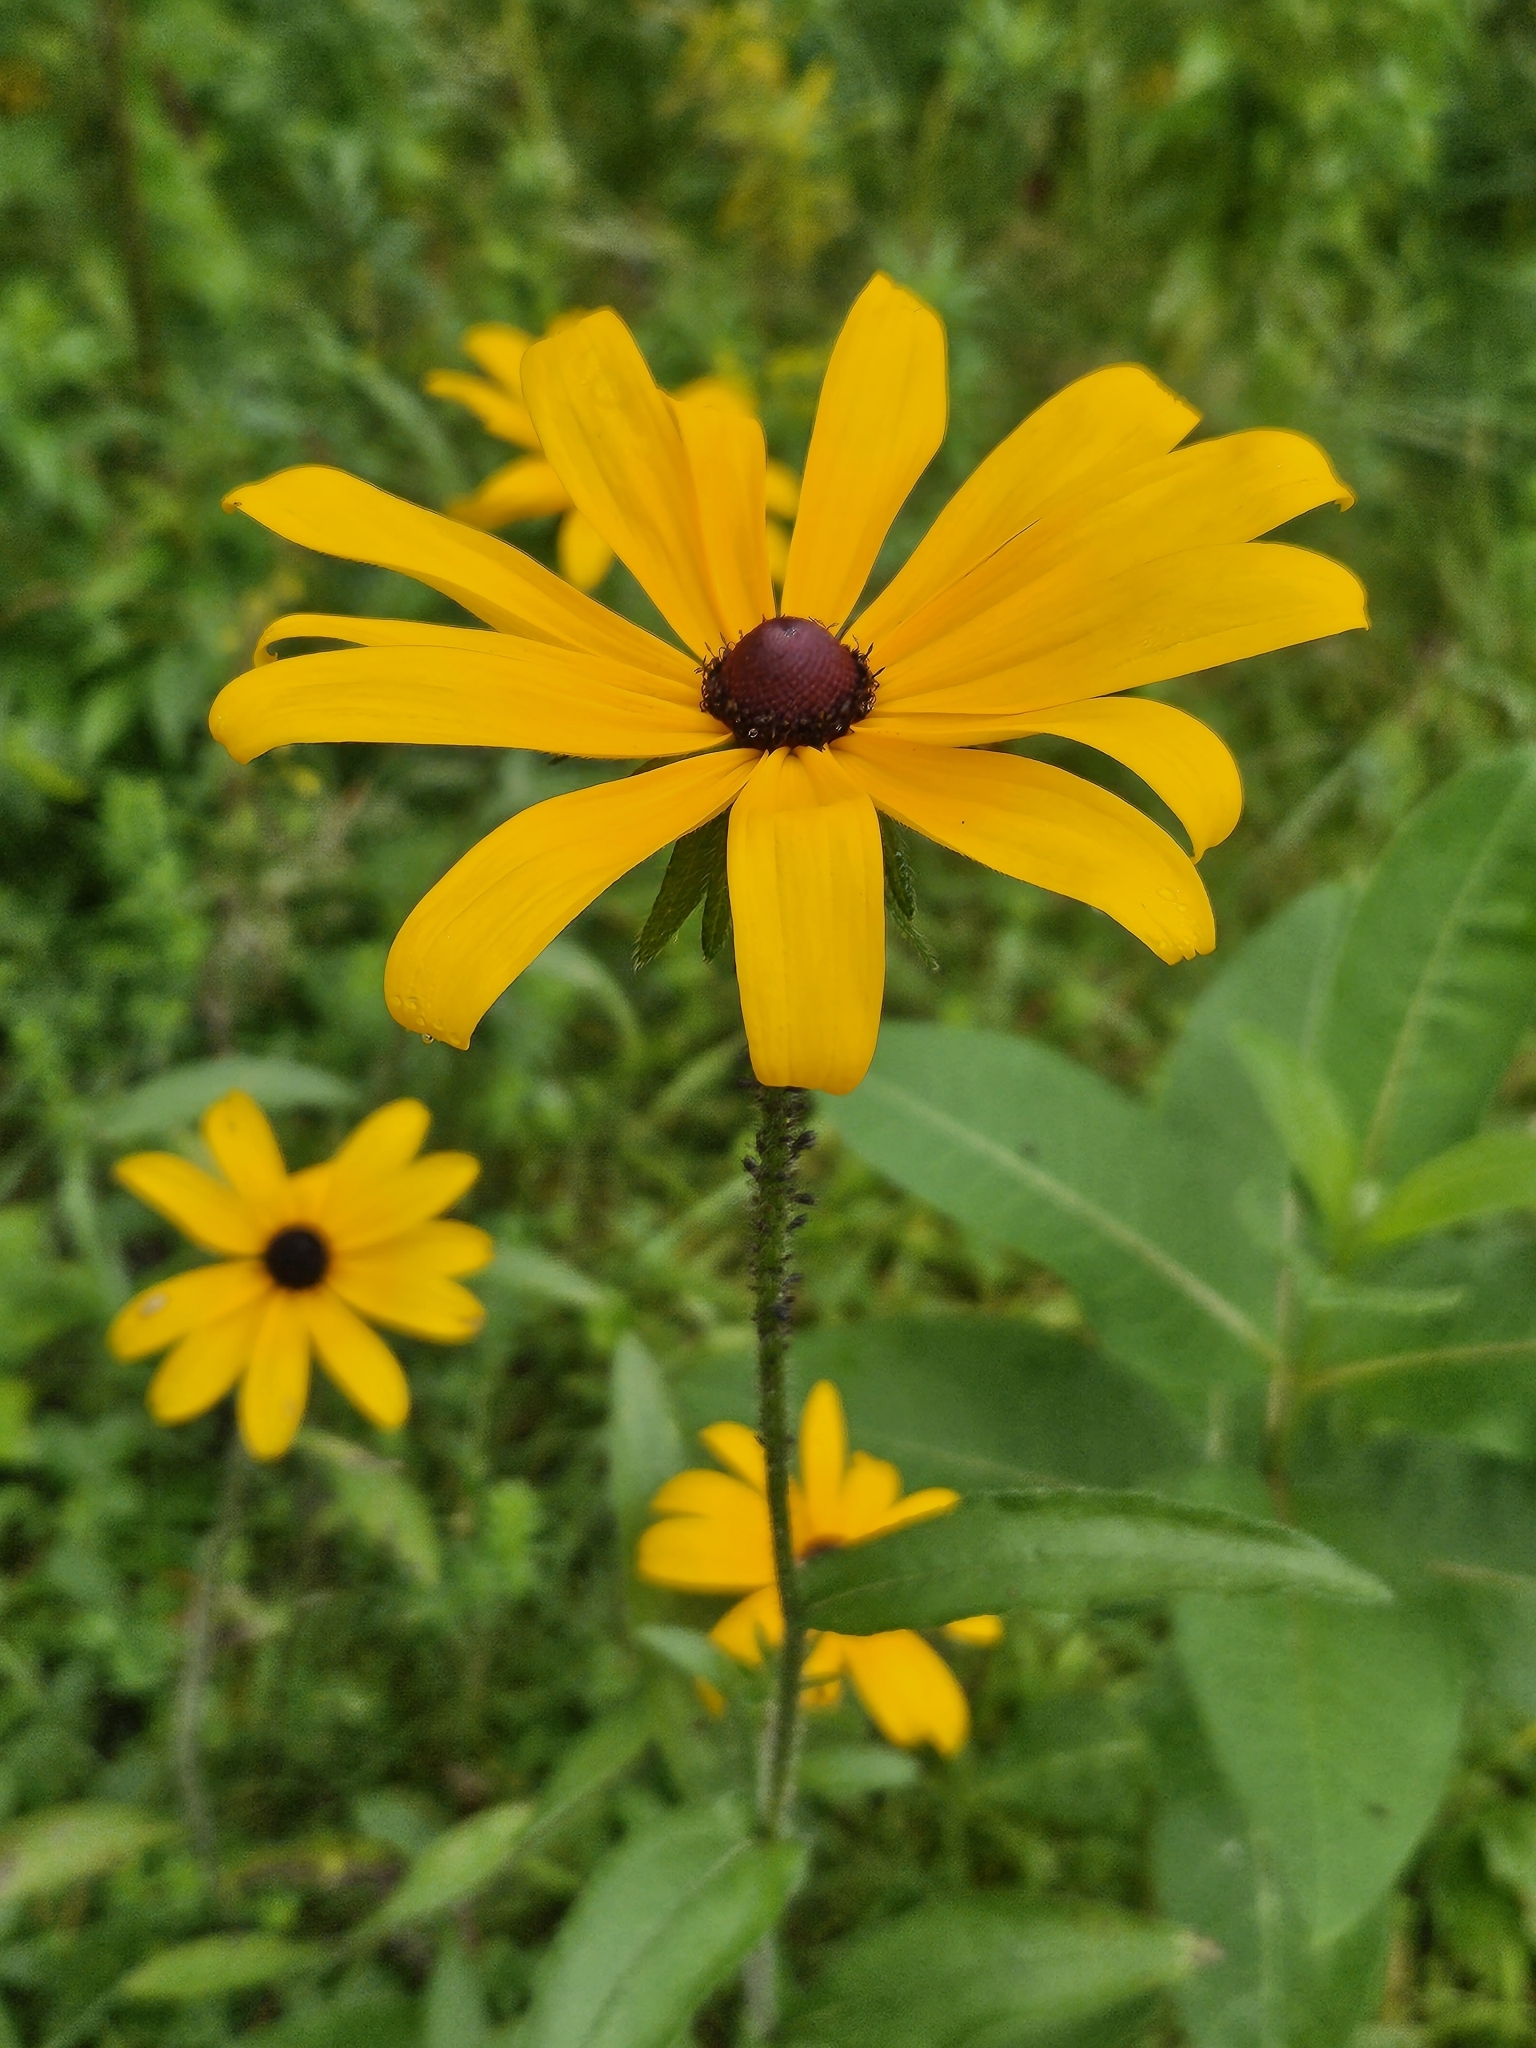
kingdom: Plantae
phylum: Tracheophyta
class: Magnoliopsida
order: Asterales
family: Asteraceae
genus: Rudbeckia
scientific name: Rudbeckia hirta
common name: Black-eyed-susan
